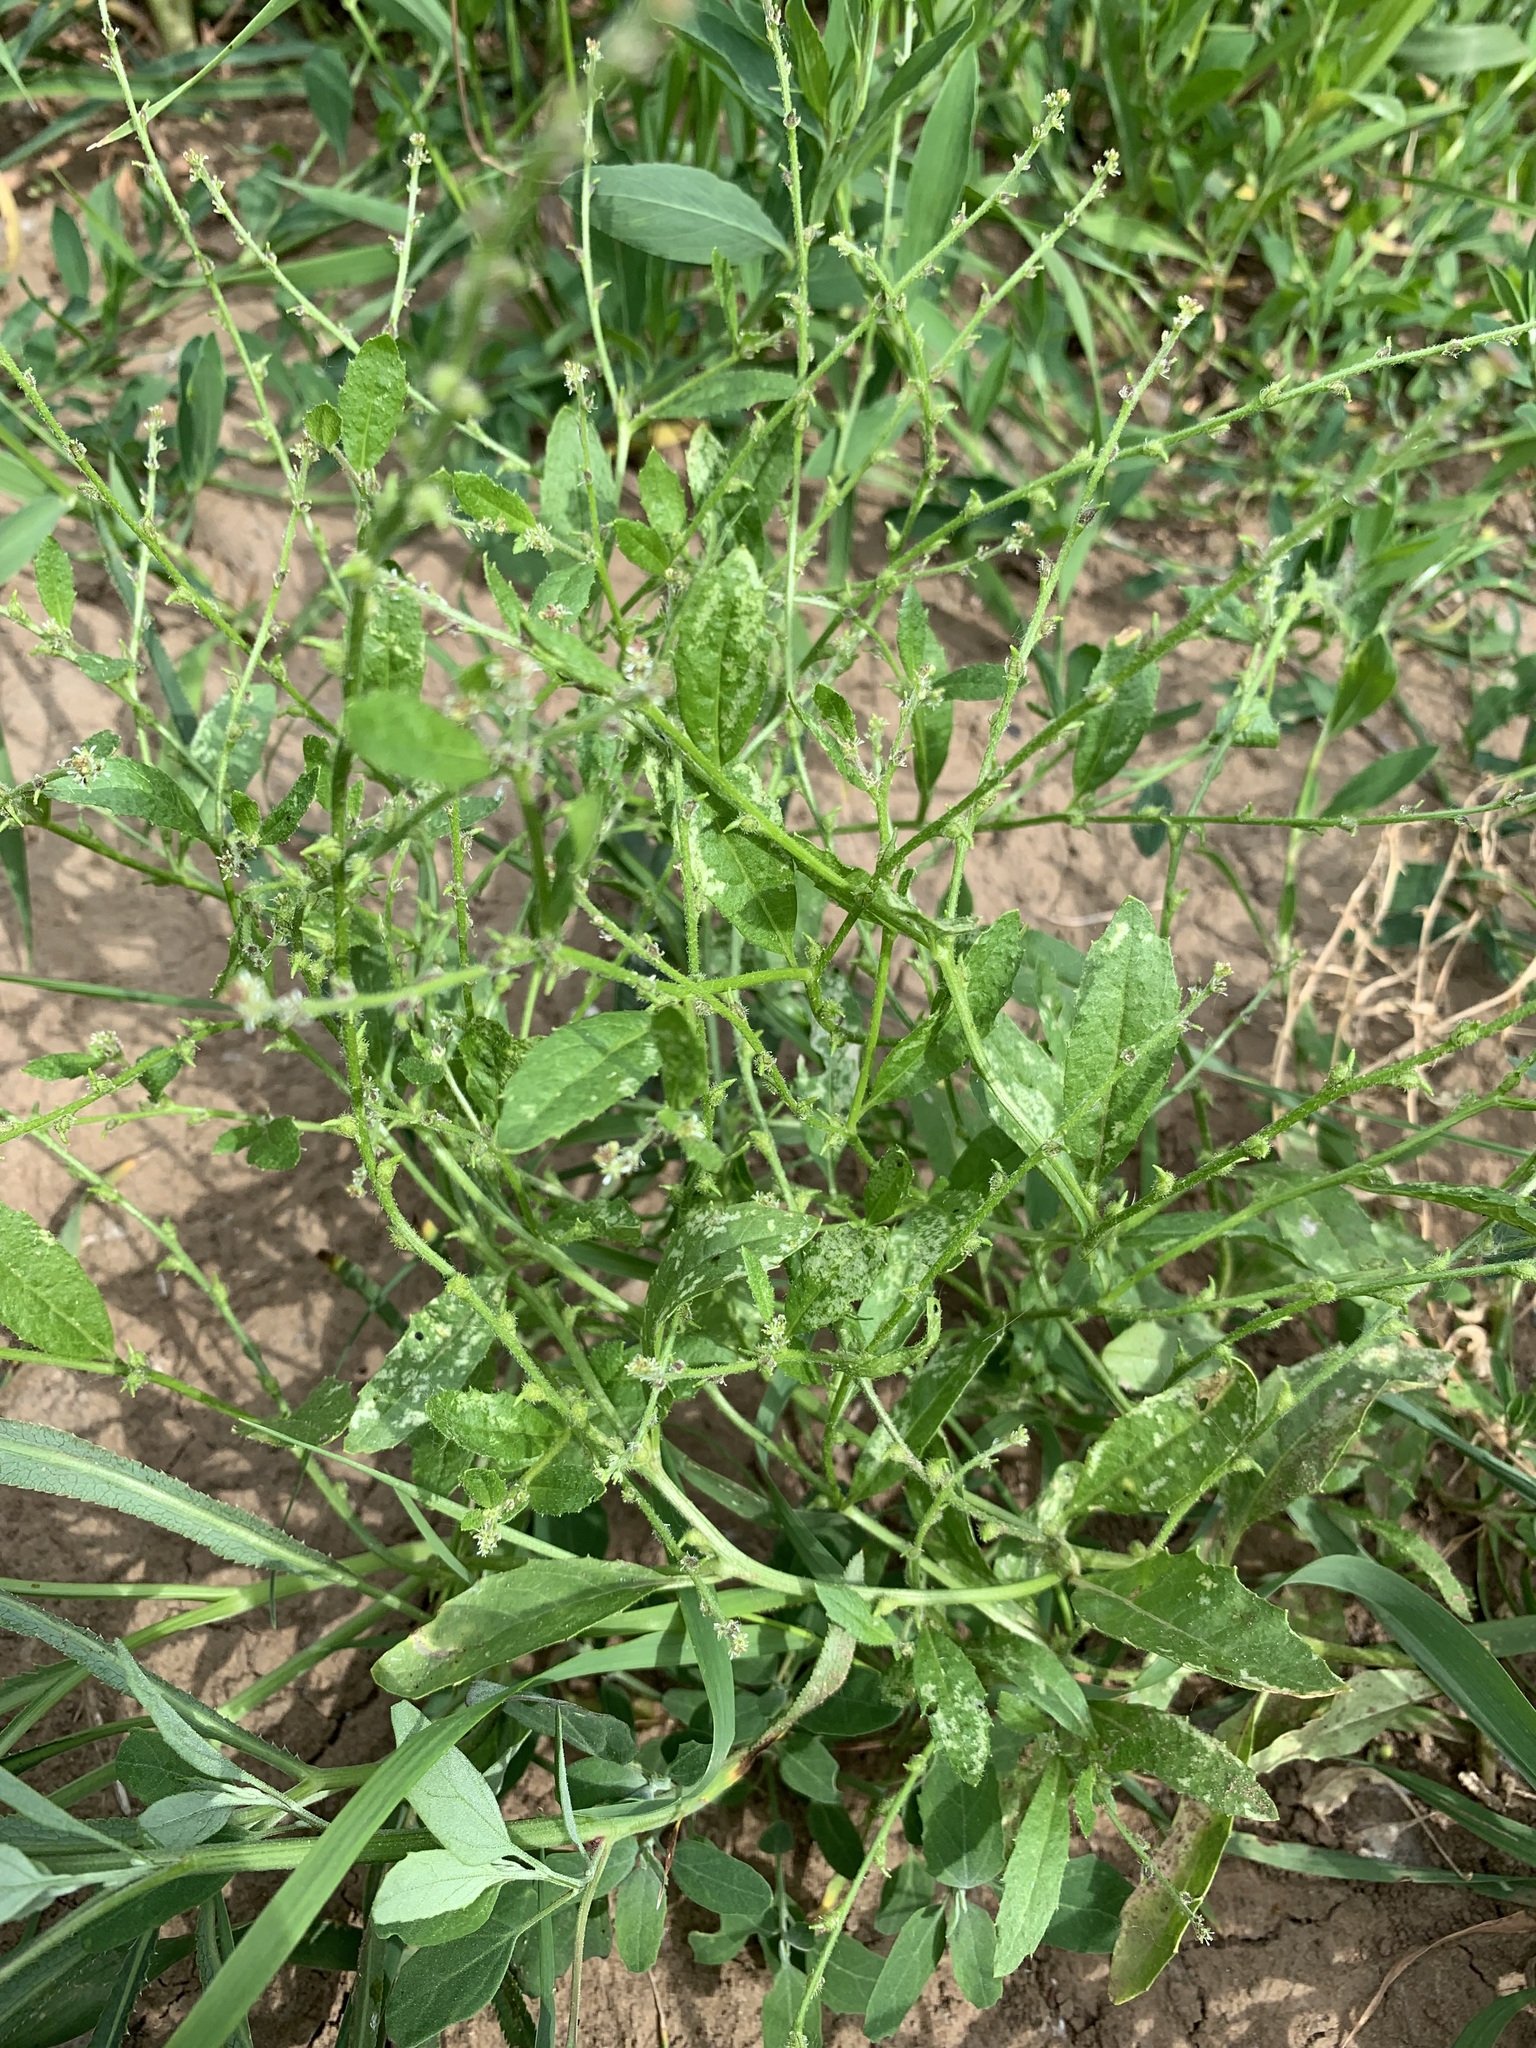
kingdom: Plantae
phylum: Tracheophyta
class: Magnoliopsida
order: Brassicales
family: Brassicaceae
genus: Euclidium
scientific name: Euclidium syriacum
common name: Syrian mustard
